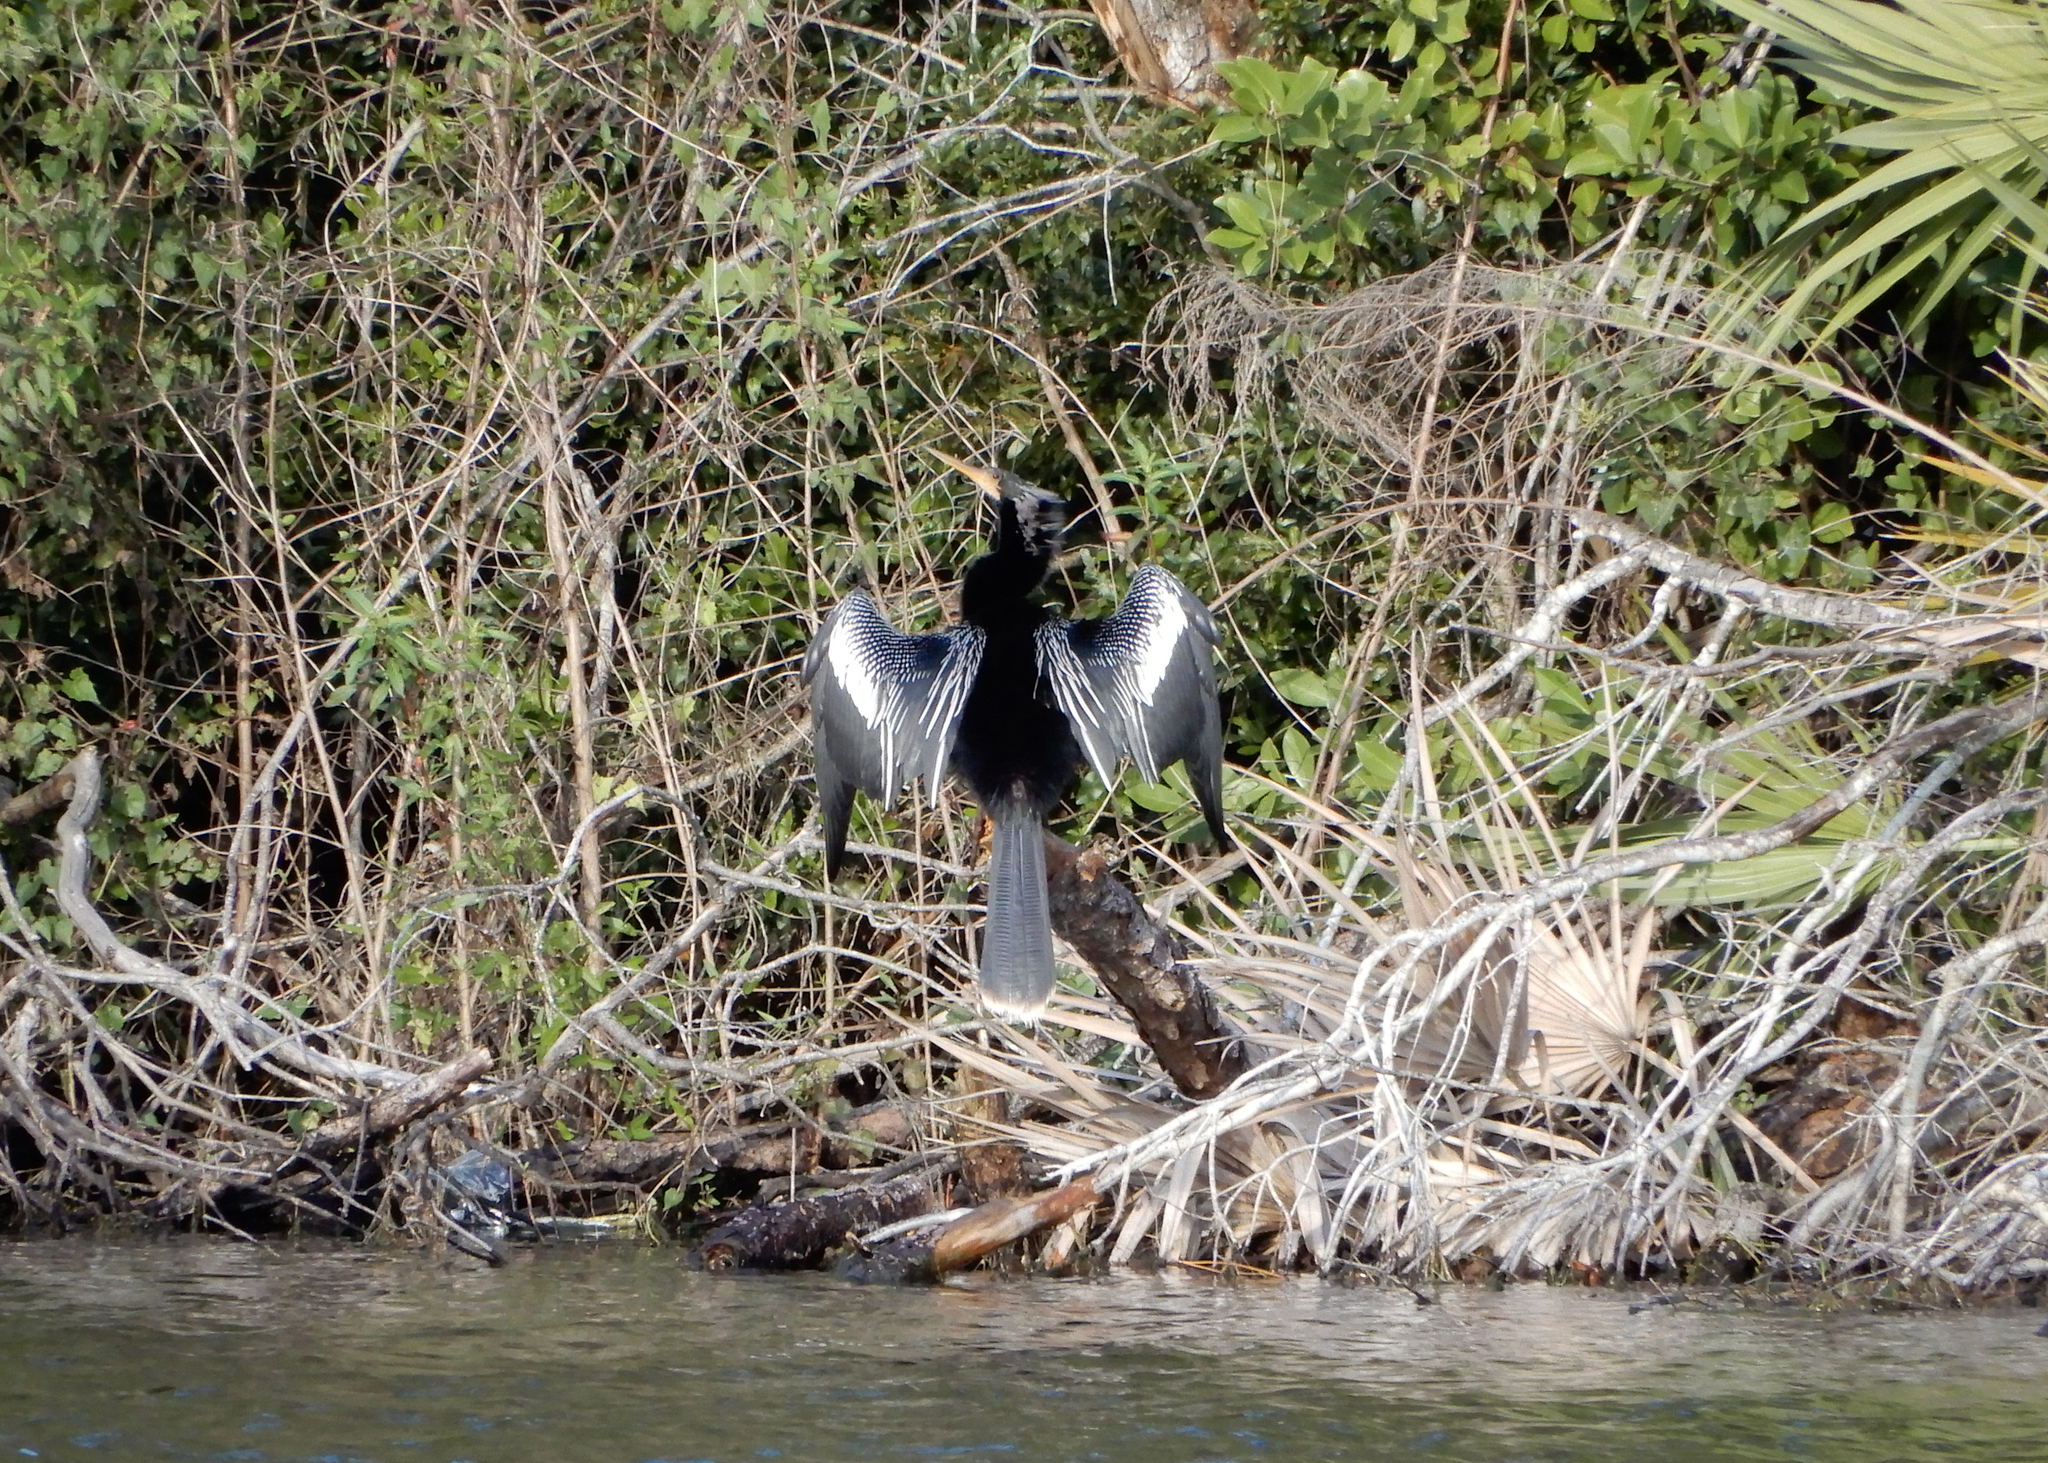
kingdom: Animalia
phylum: Chordata
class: Aves
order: Suliformes
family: Anhingidae
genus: Anhinga
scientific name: Anhinga anhinga
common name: Anhinga
